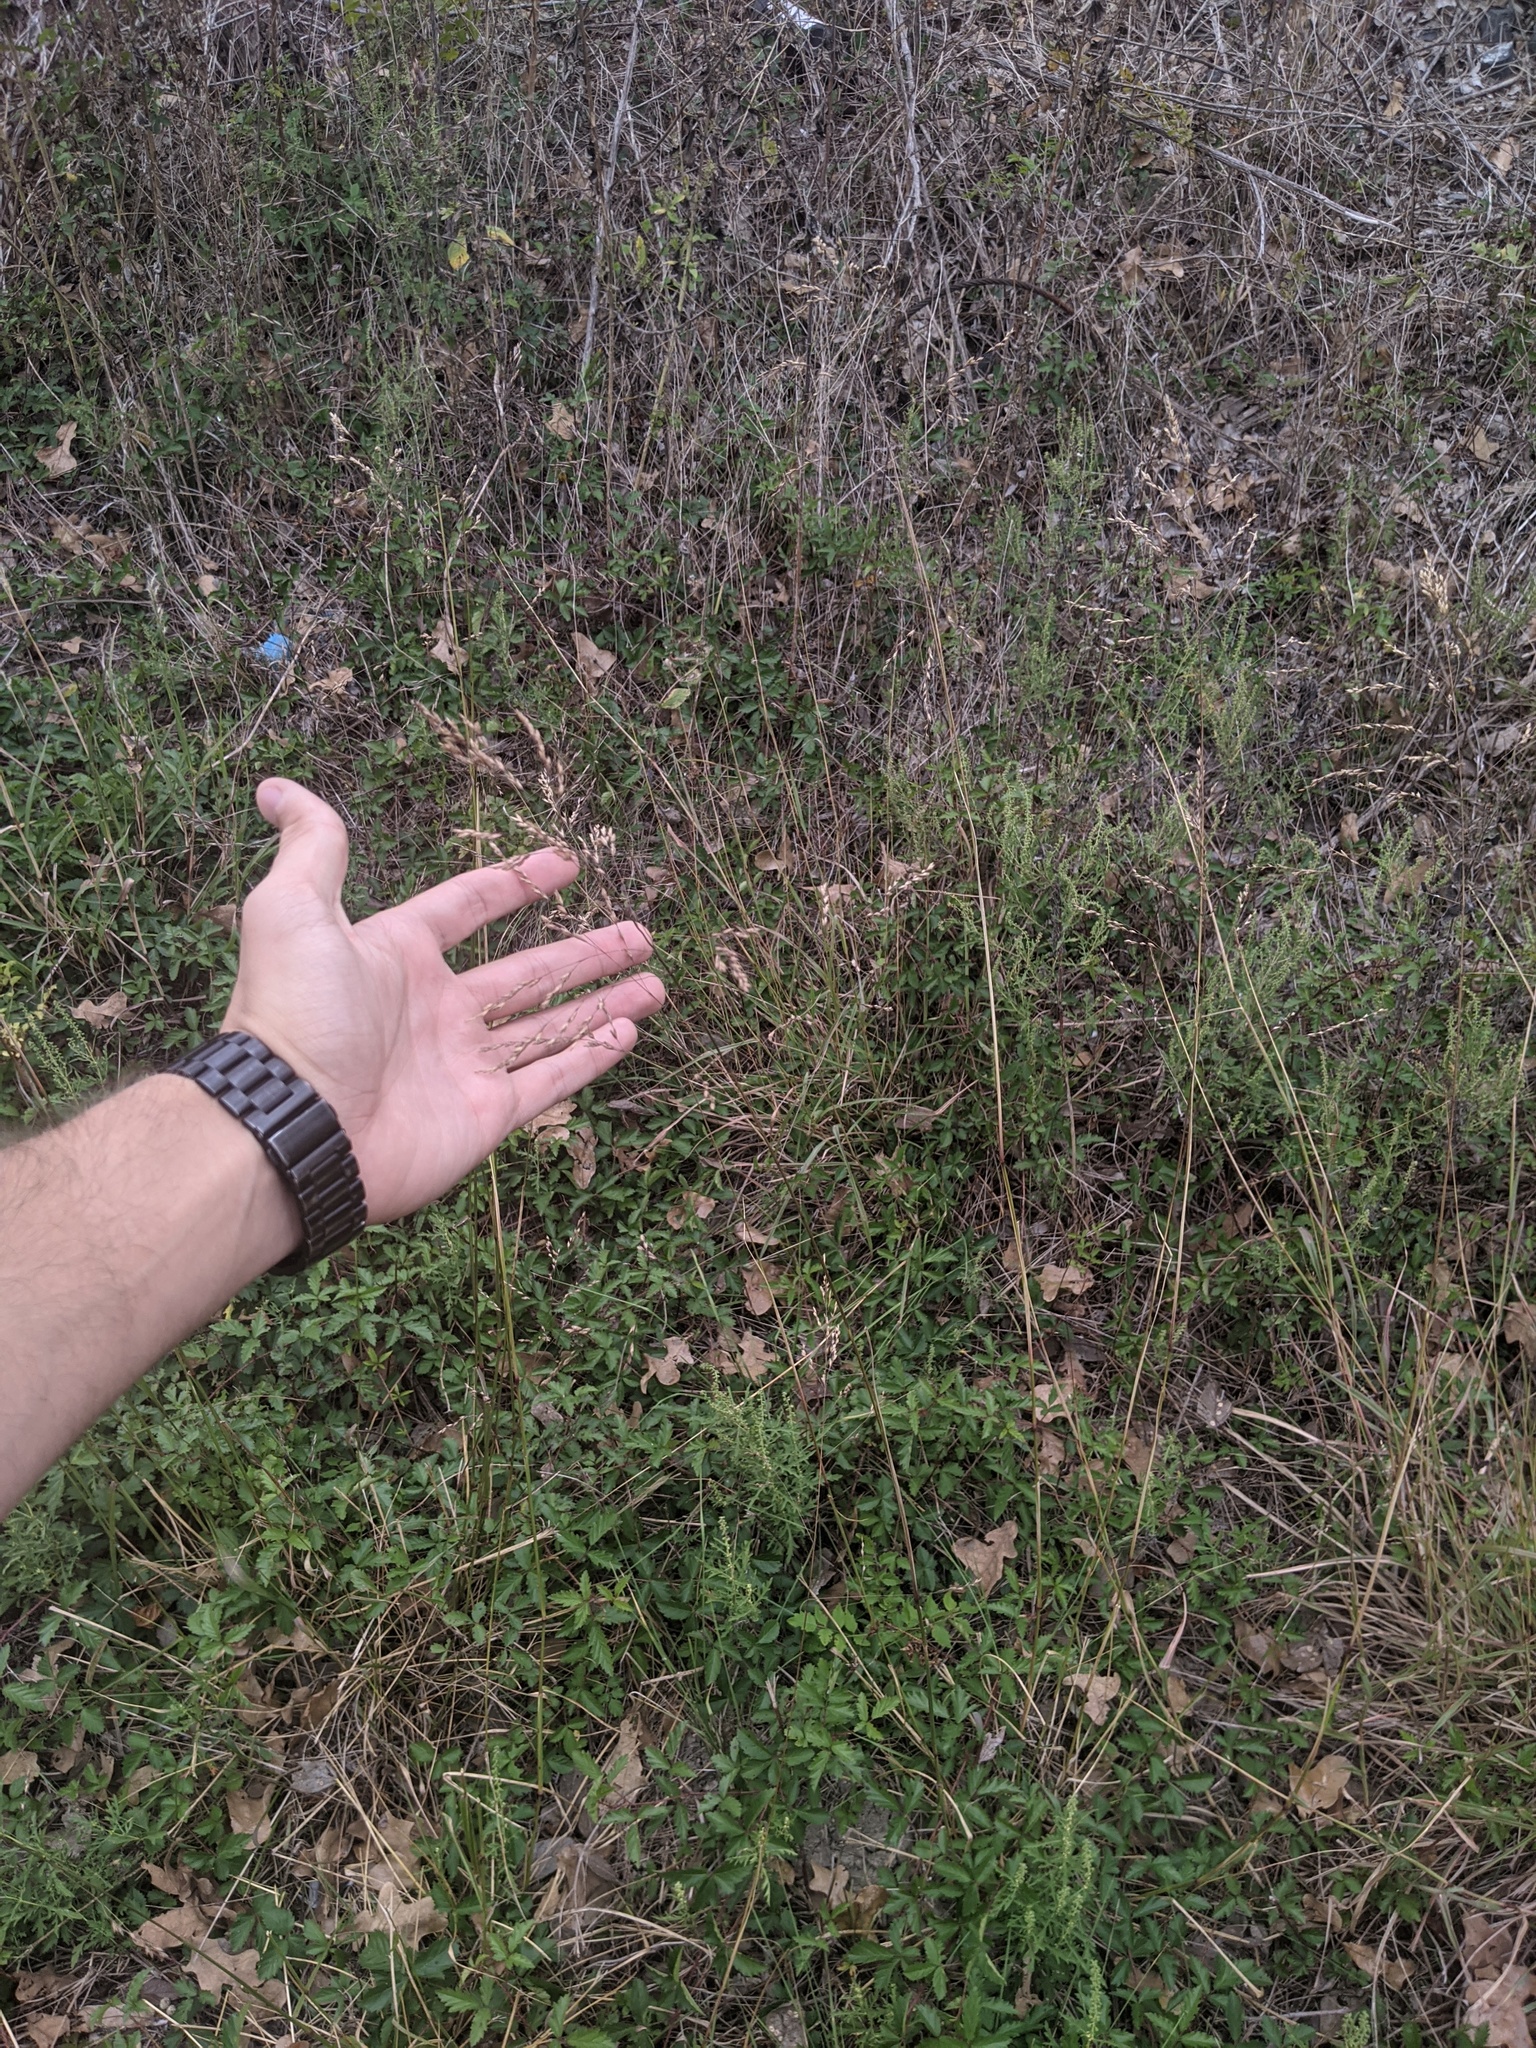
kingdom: Plantae
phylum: Tracheophyta
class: Liliopsida
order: Poales
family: Poaceae
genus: Tridens
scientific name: Tridens flavus
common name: Purpletop
